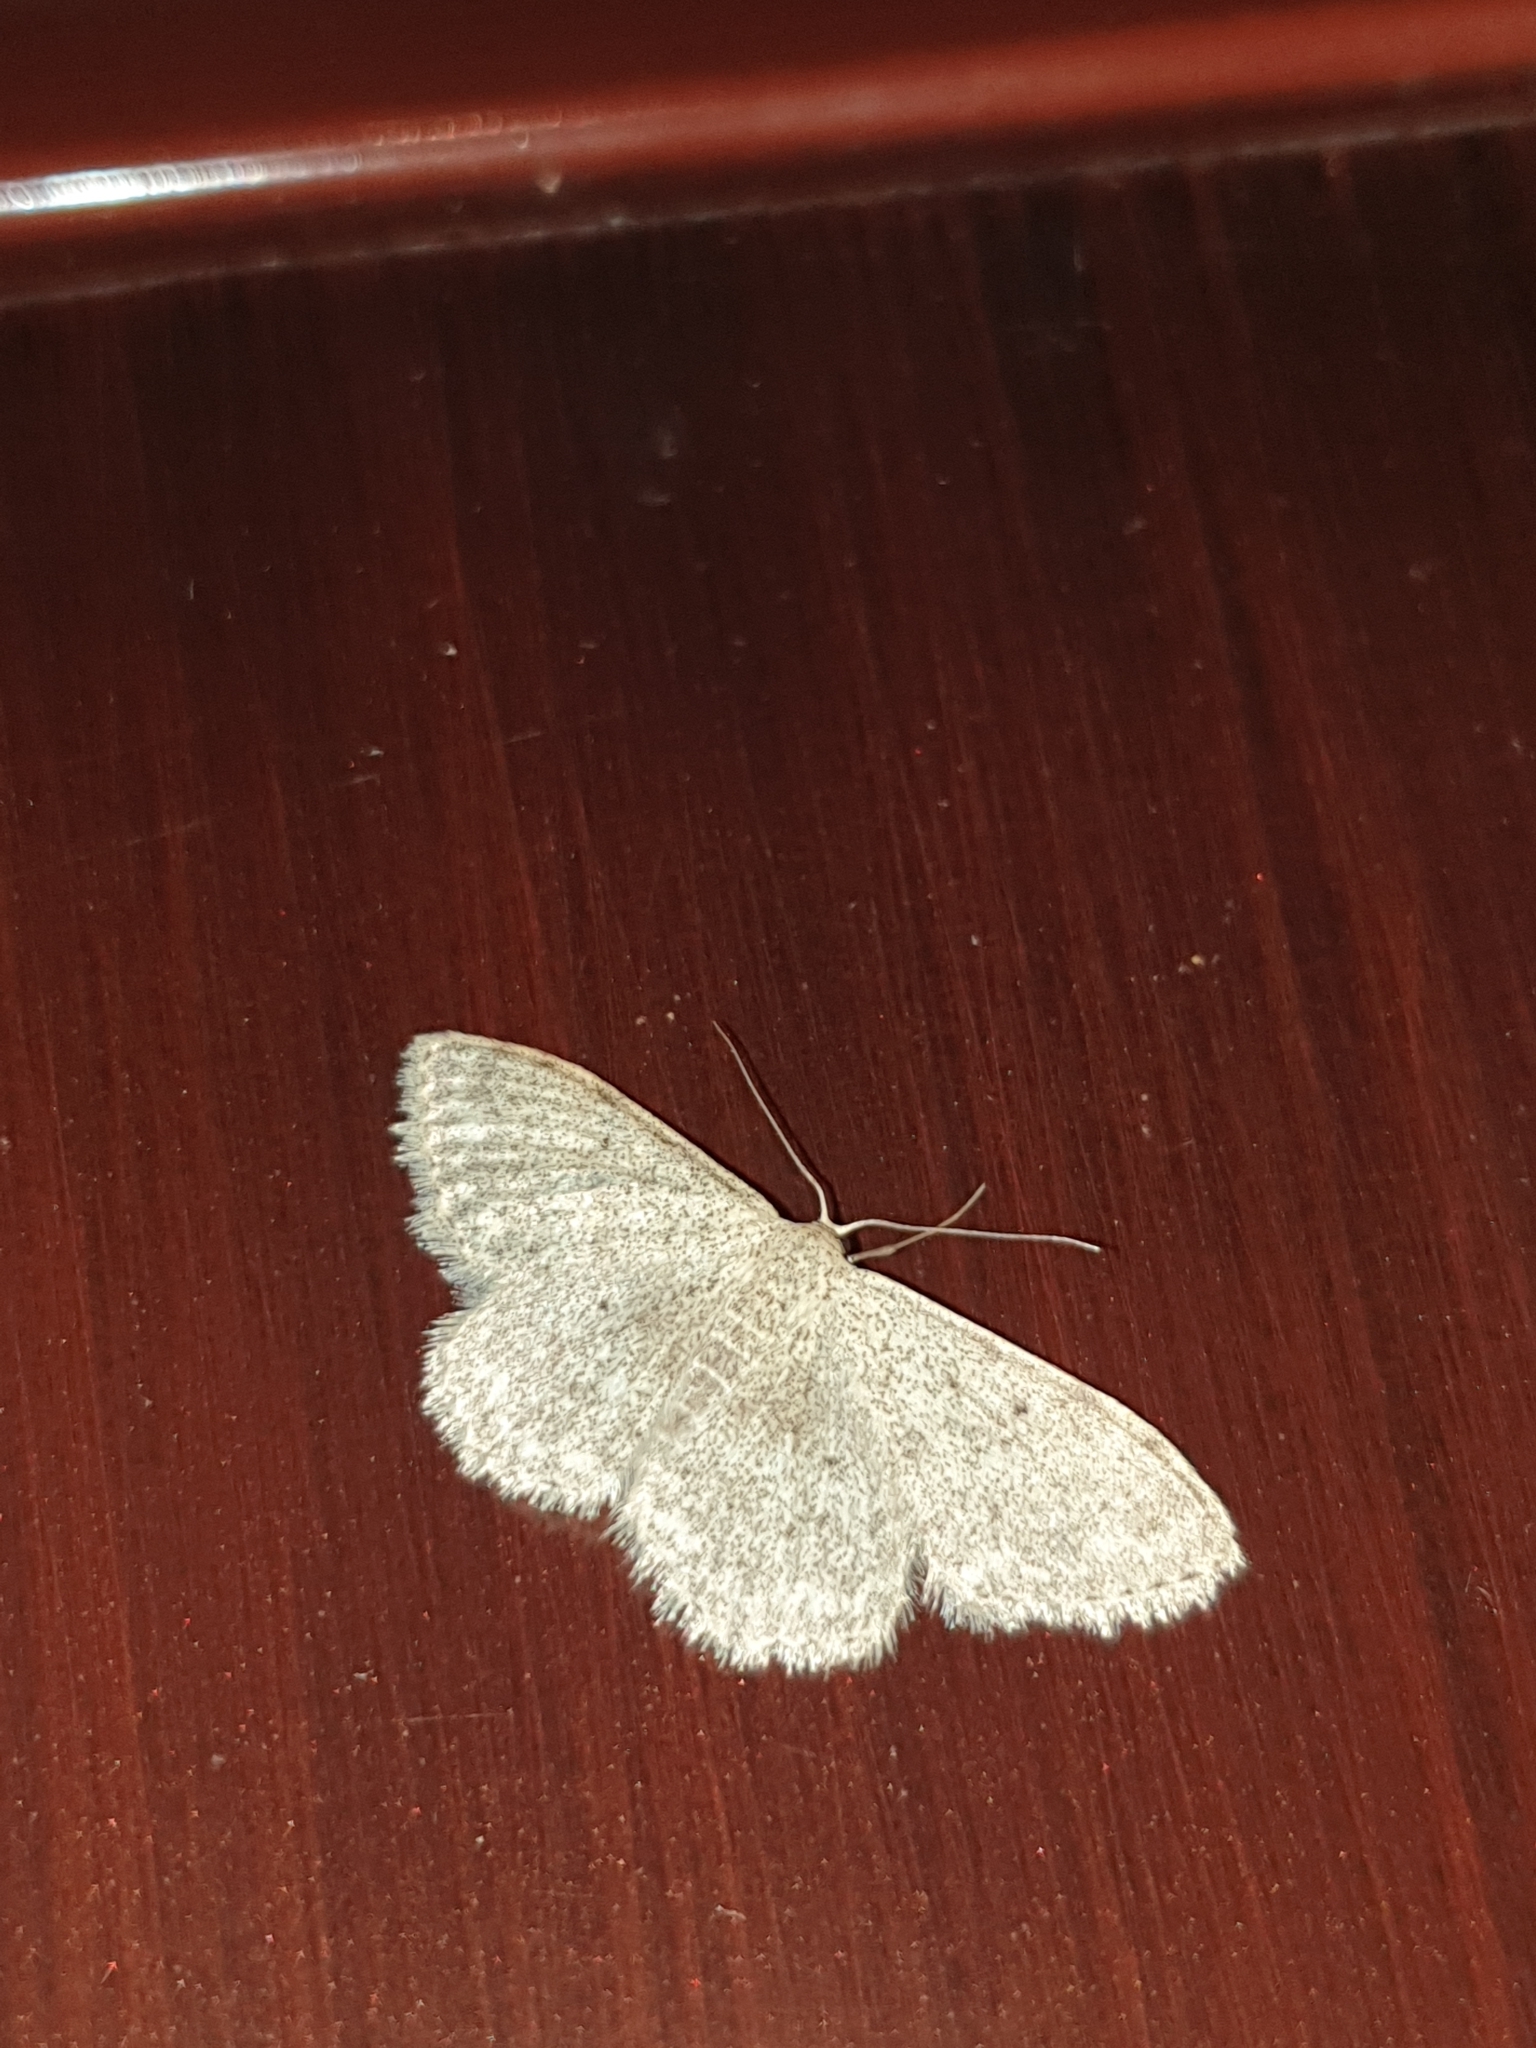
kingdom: Animalia
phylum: Arthropoda
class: Insecta
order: Lepidoptera
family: Geometridae
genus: Scopula
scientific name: Scopula marginepunctata
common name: Mullein wave
